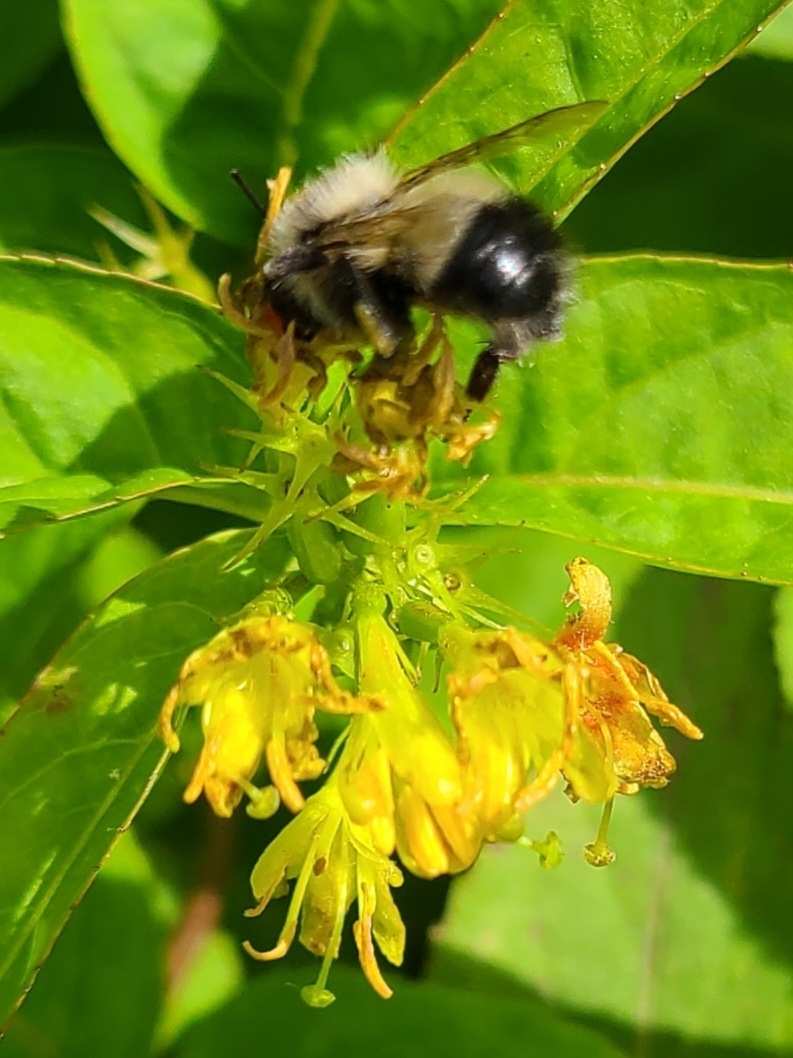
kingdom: Animalia
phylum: Arthropoda
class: Insecta
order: Hymenoptera
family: Apidae
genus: Pyrobombus
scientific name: Pyrobombus
